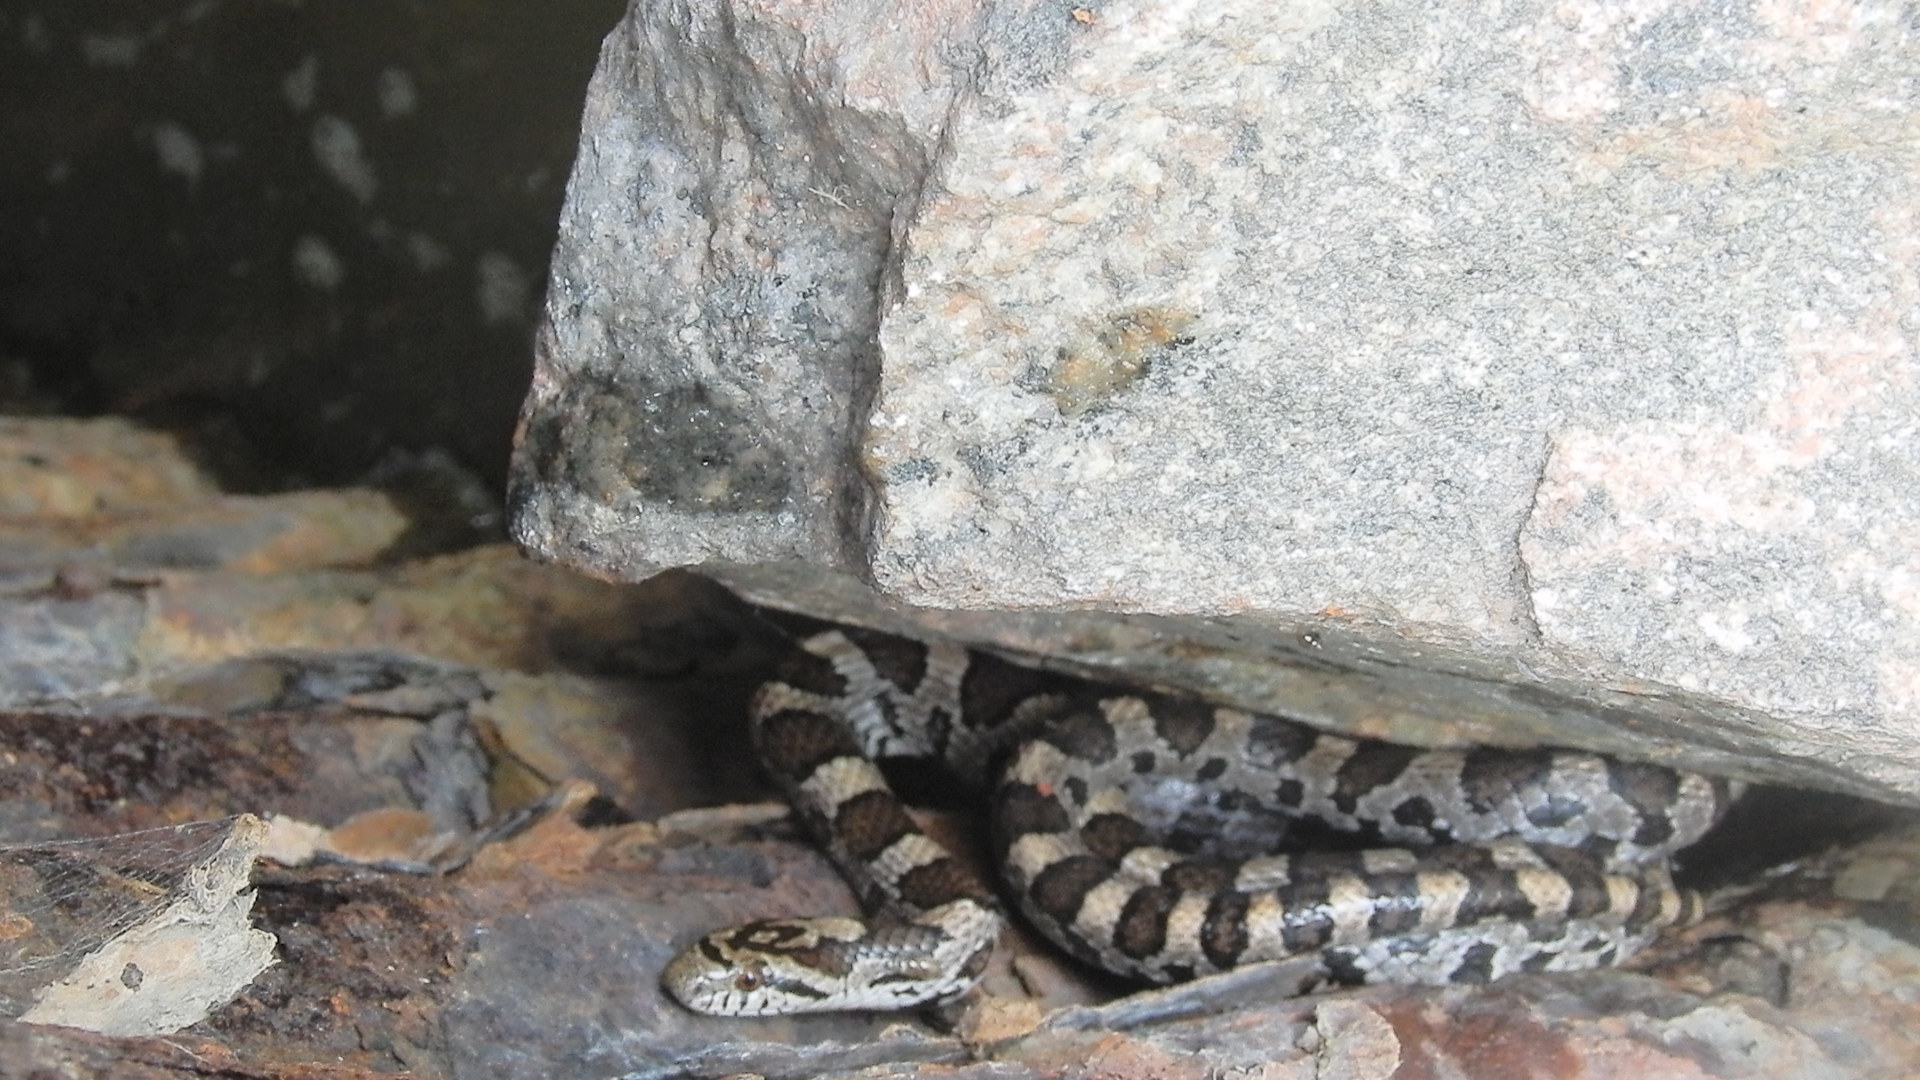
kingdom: Animalia
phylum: Chordata
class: Squamata
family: Colubridae
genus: Lampropeltis
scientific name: Lampropeltis triangulum
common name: Eastern milksnake
